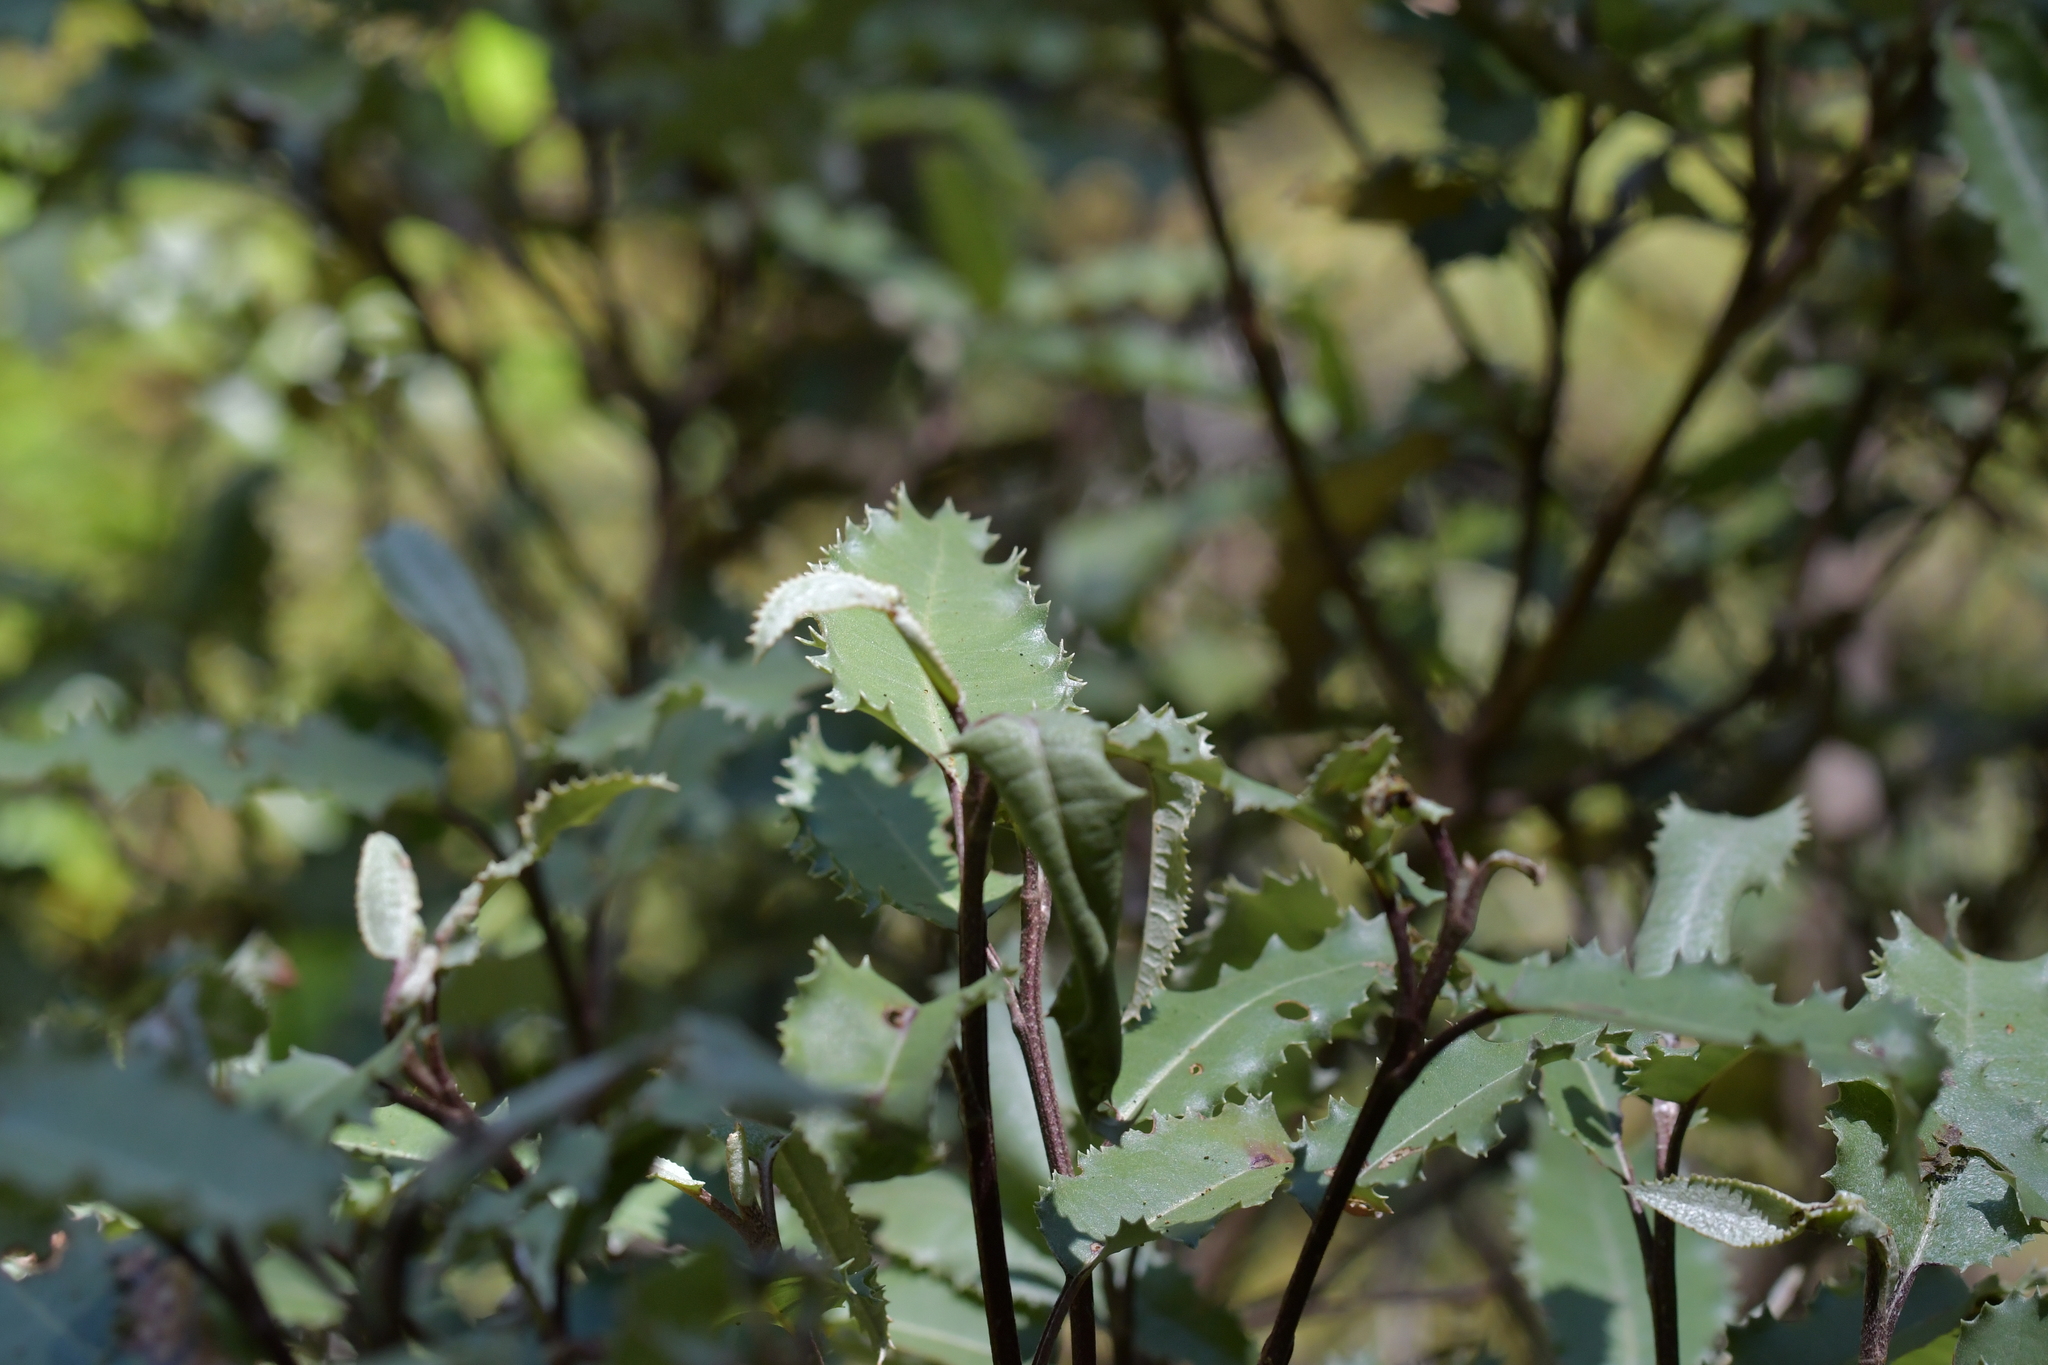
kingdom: Plantae
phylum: Tracheophyta
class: Magnoliopsida
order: Asterales
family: Asteraceae
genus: Olearia
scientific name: Olearia ilicifolia
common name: Maori-holly
